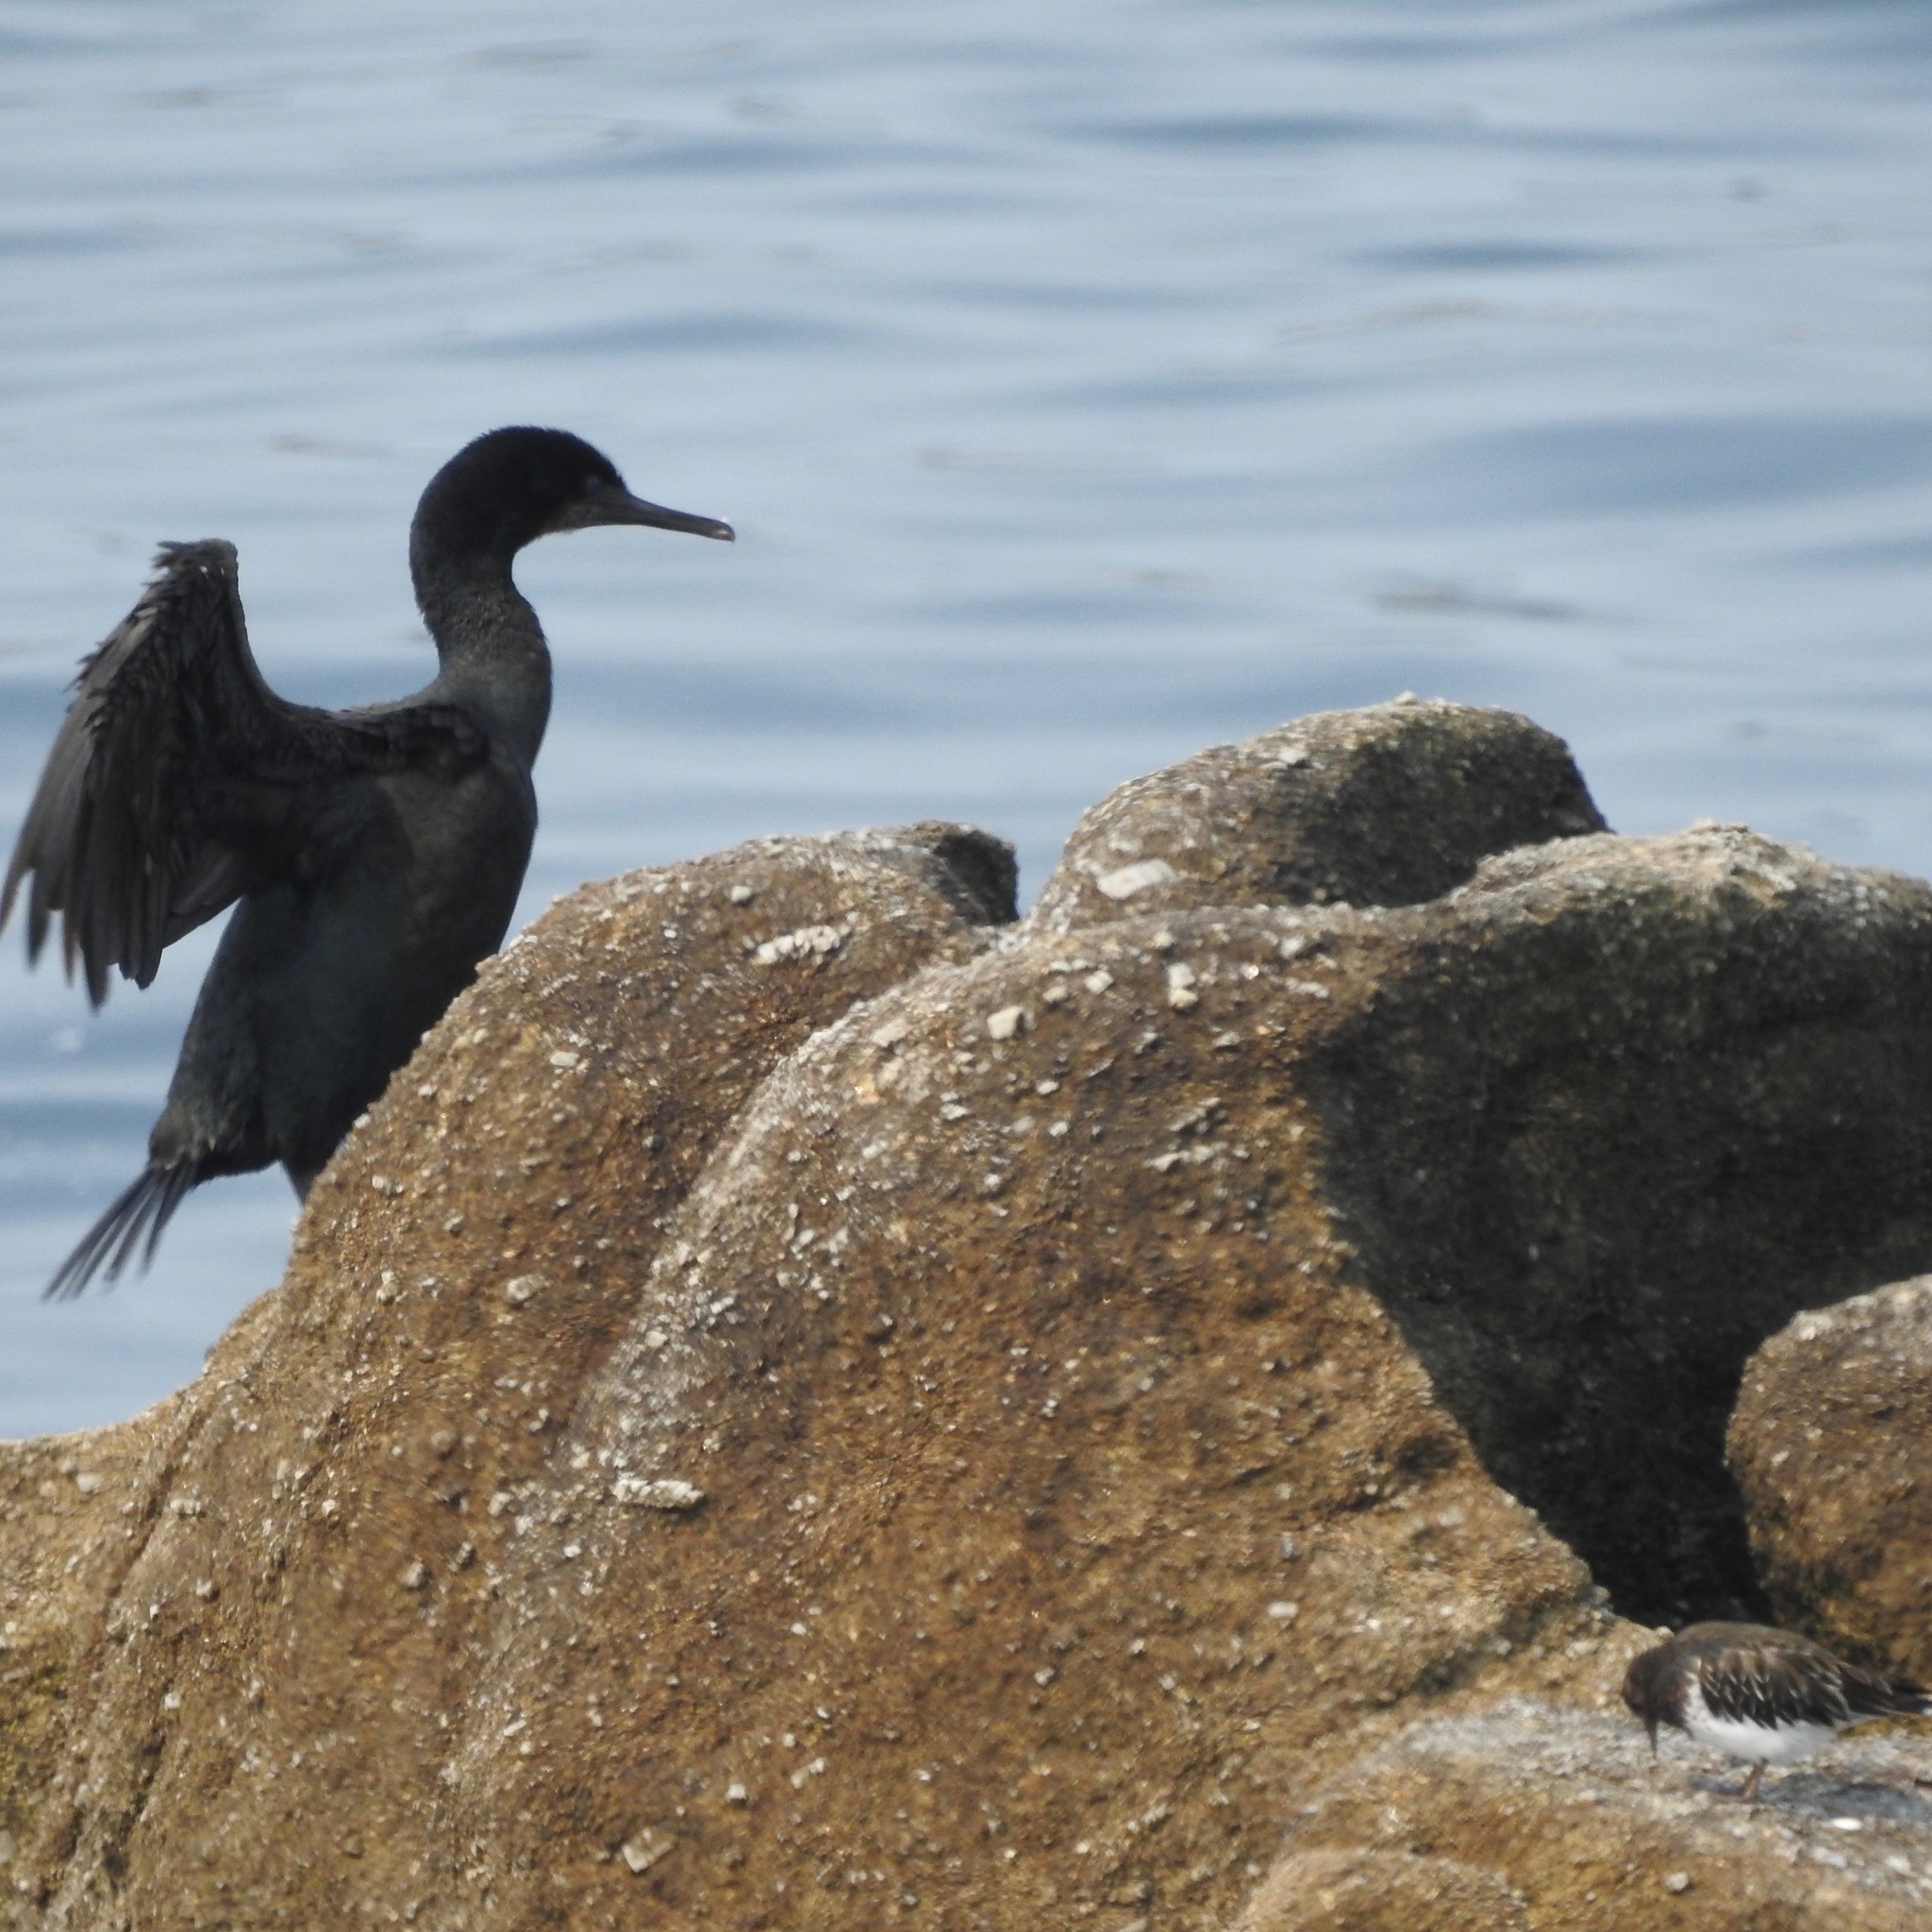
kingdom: Animalia
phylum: Chordata
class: Aves
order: Suliformes
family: Phalacrocoracidae
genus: Urile
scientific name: Urile penicillatus
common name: Brandt's cormorant
